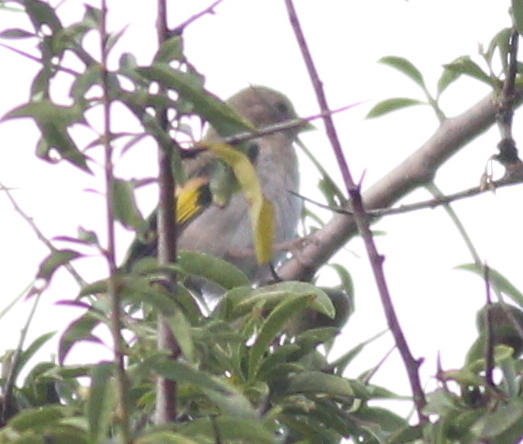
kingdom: Animalia
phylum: Chordata
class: Aves
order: Passeriformes
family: Fringillidae
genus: Carduelis
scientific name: Carduelis carduelis
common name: European goldfinch
